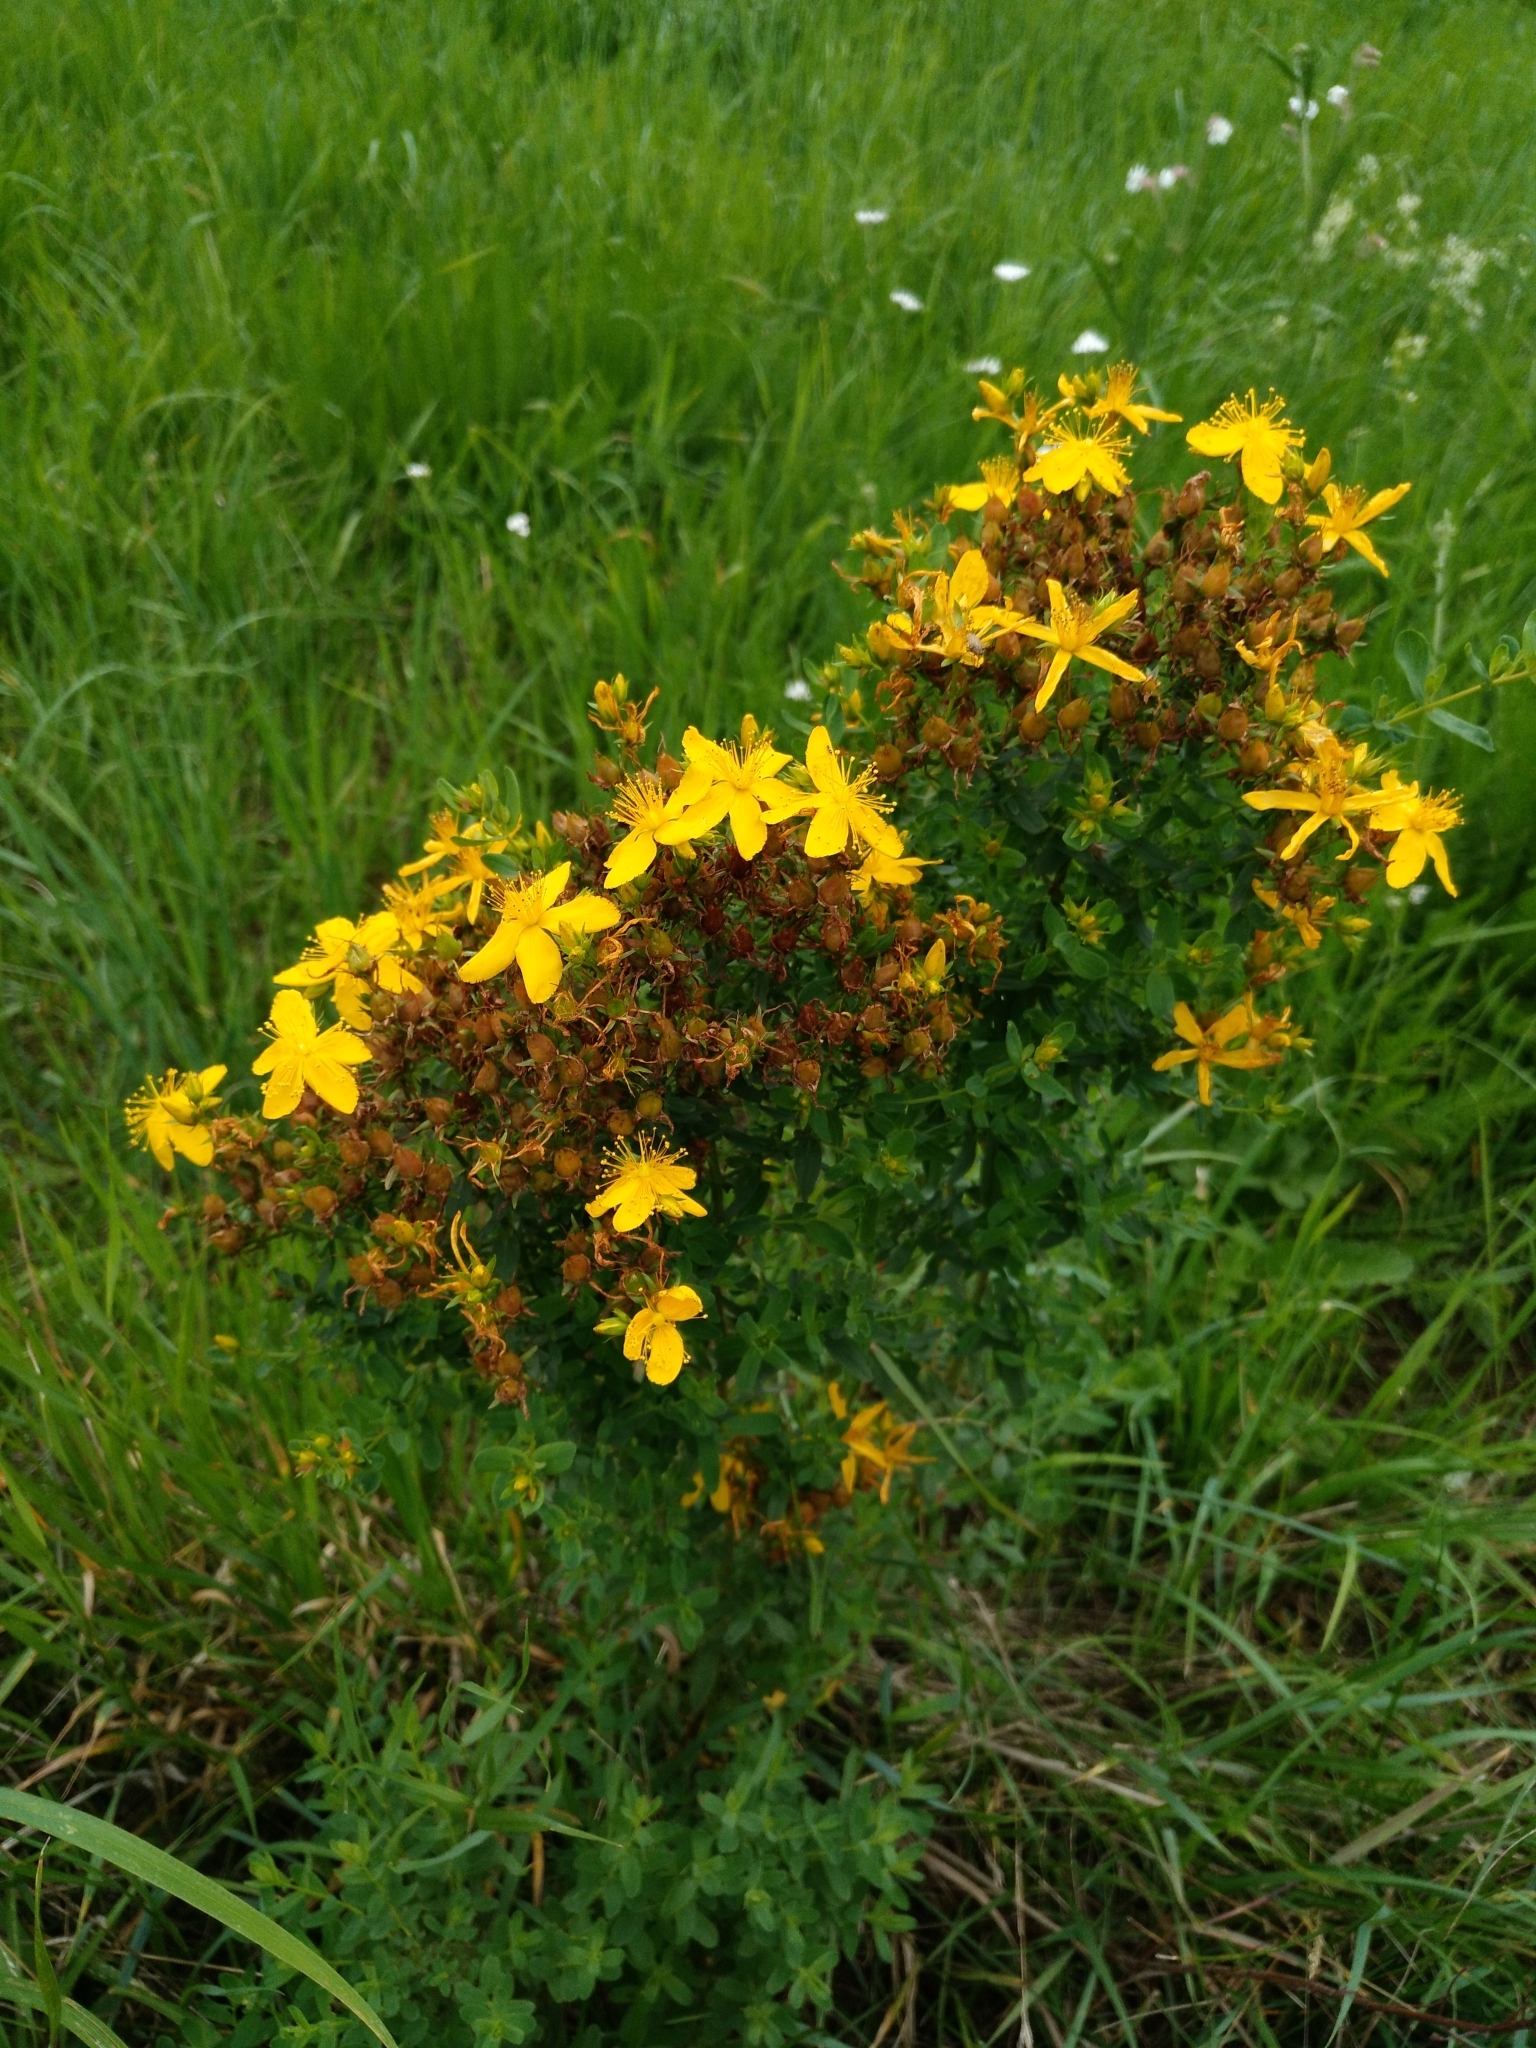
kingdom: Plantae
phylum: Tracheophyta
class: Magnoliopsida
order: Malpighiales
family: Hypericaceae
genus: Hypericum
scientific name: Hypericum perforatum
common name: Common st. johnswort
